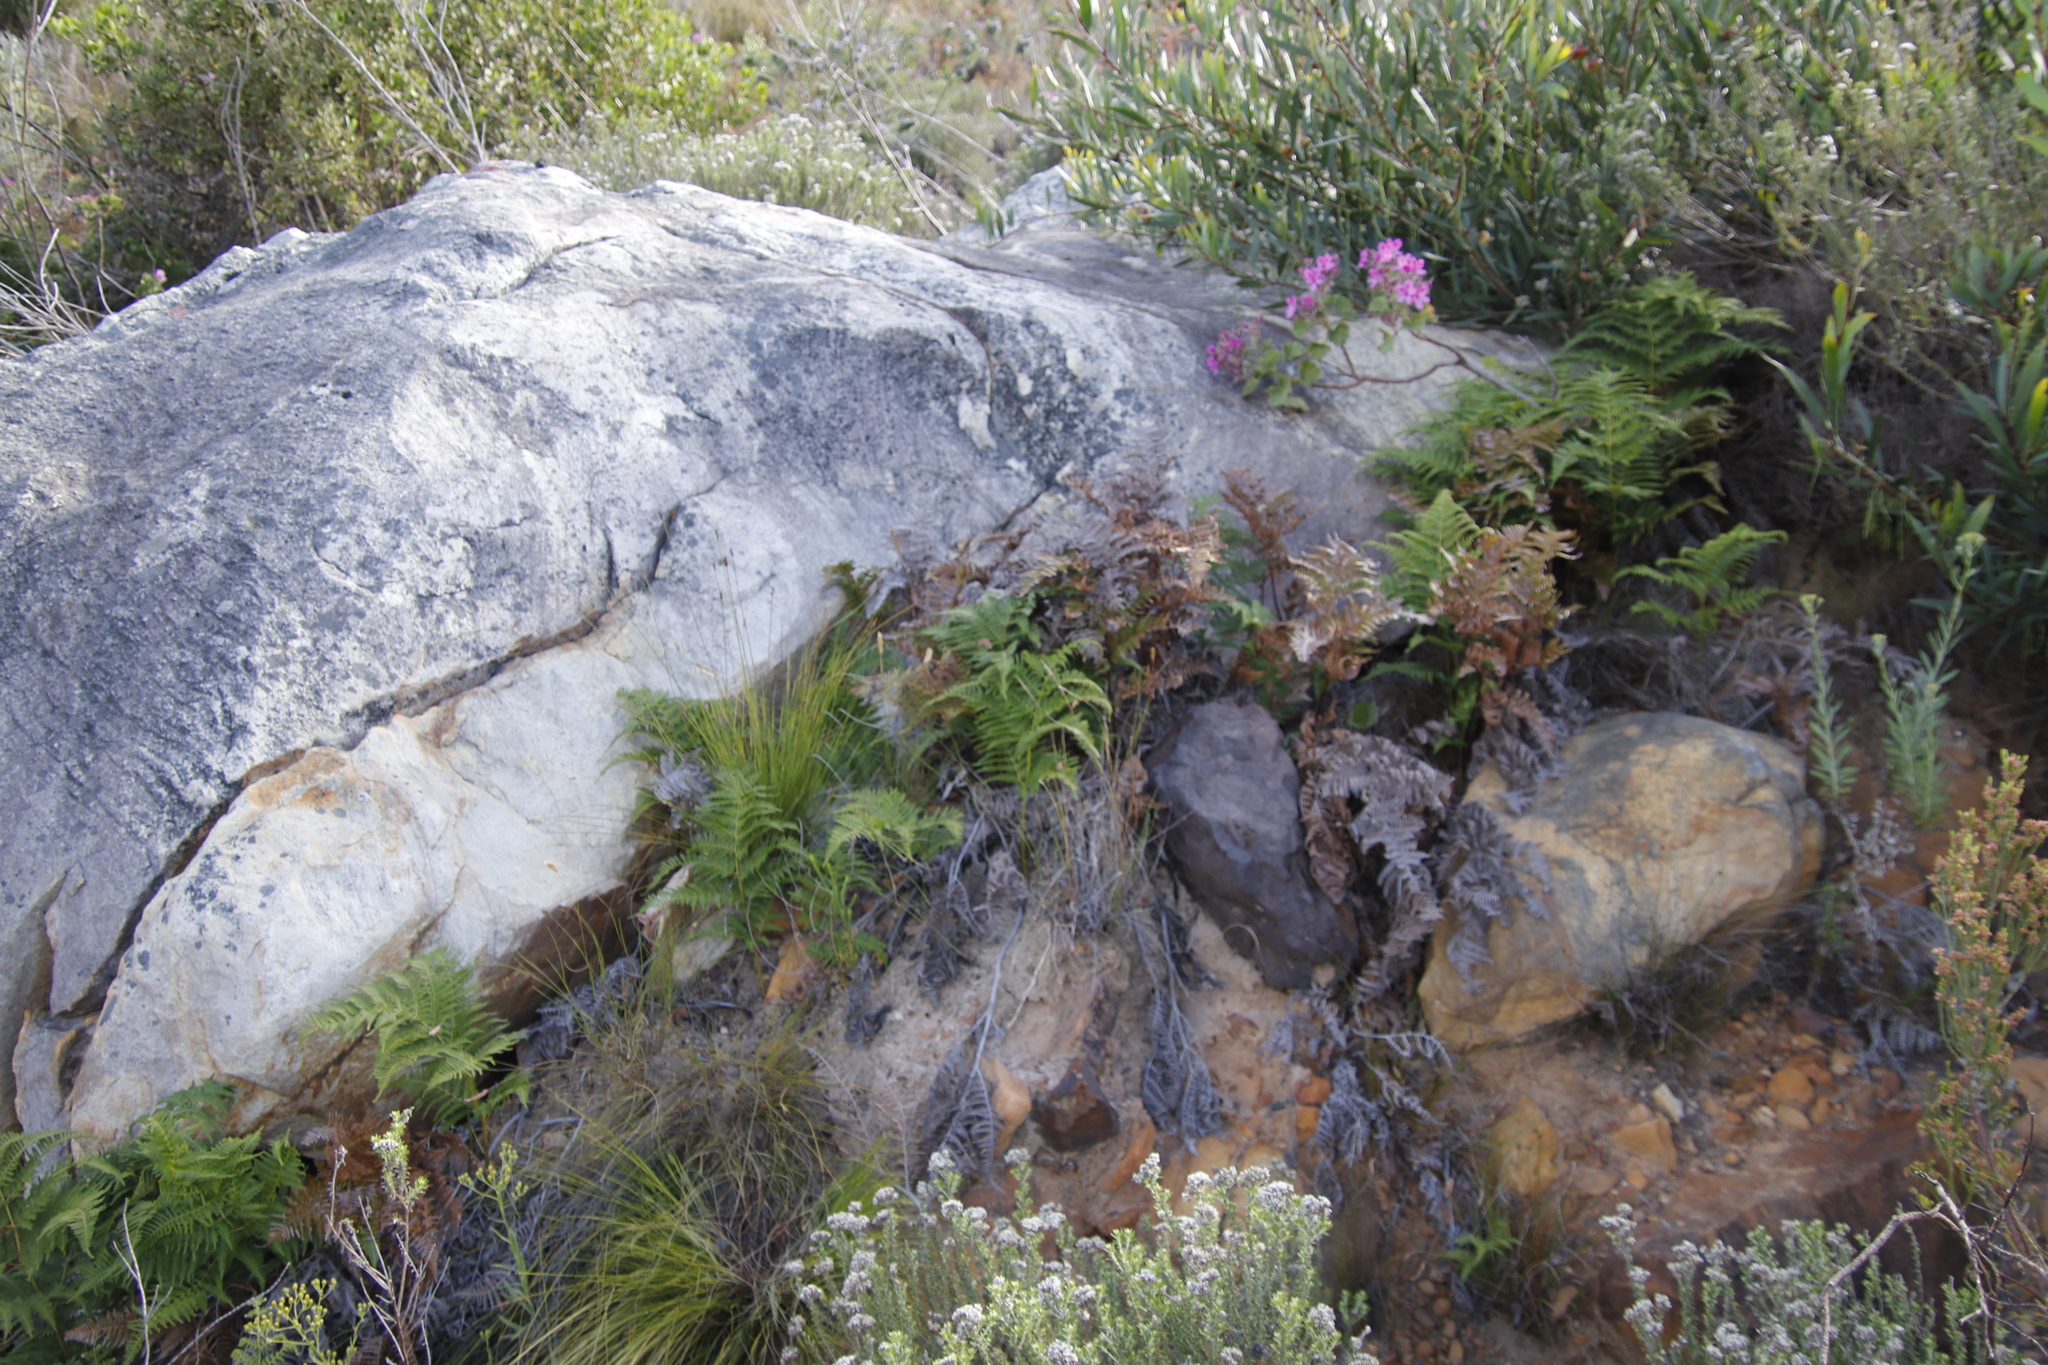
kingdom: Plantae
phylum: Tracheophyta
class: Polypodiopsida
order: Polypodiales
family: Dennstaedtiaceae
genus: Pteridium
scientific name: Pteridium aquilinum
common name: Bracken
